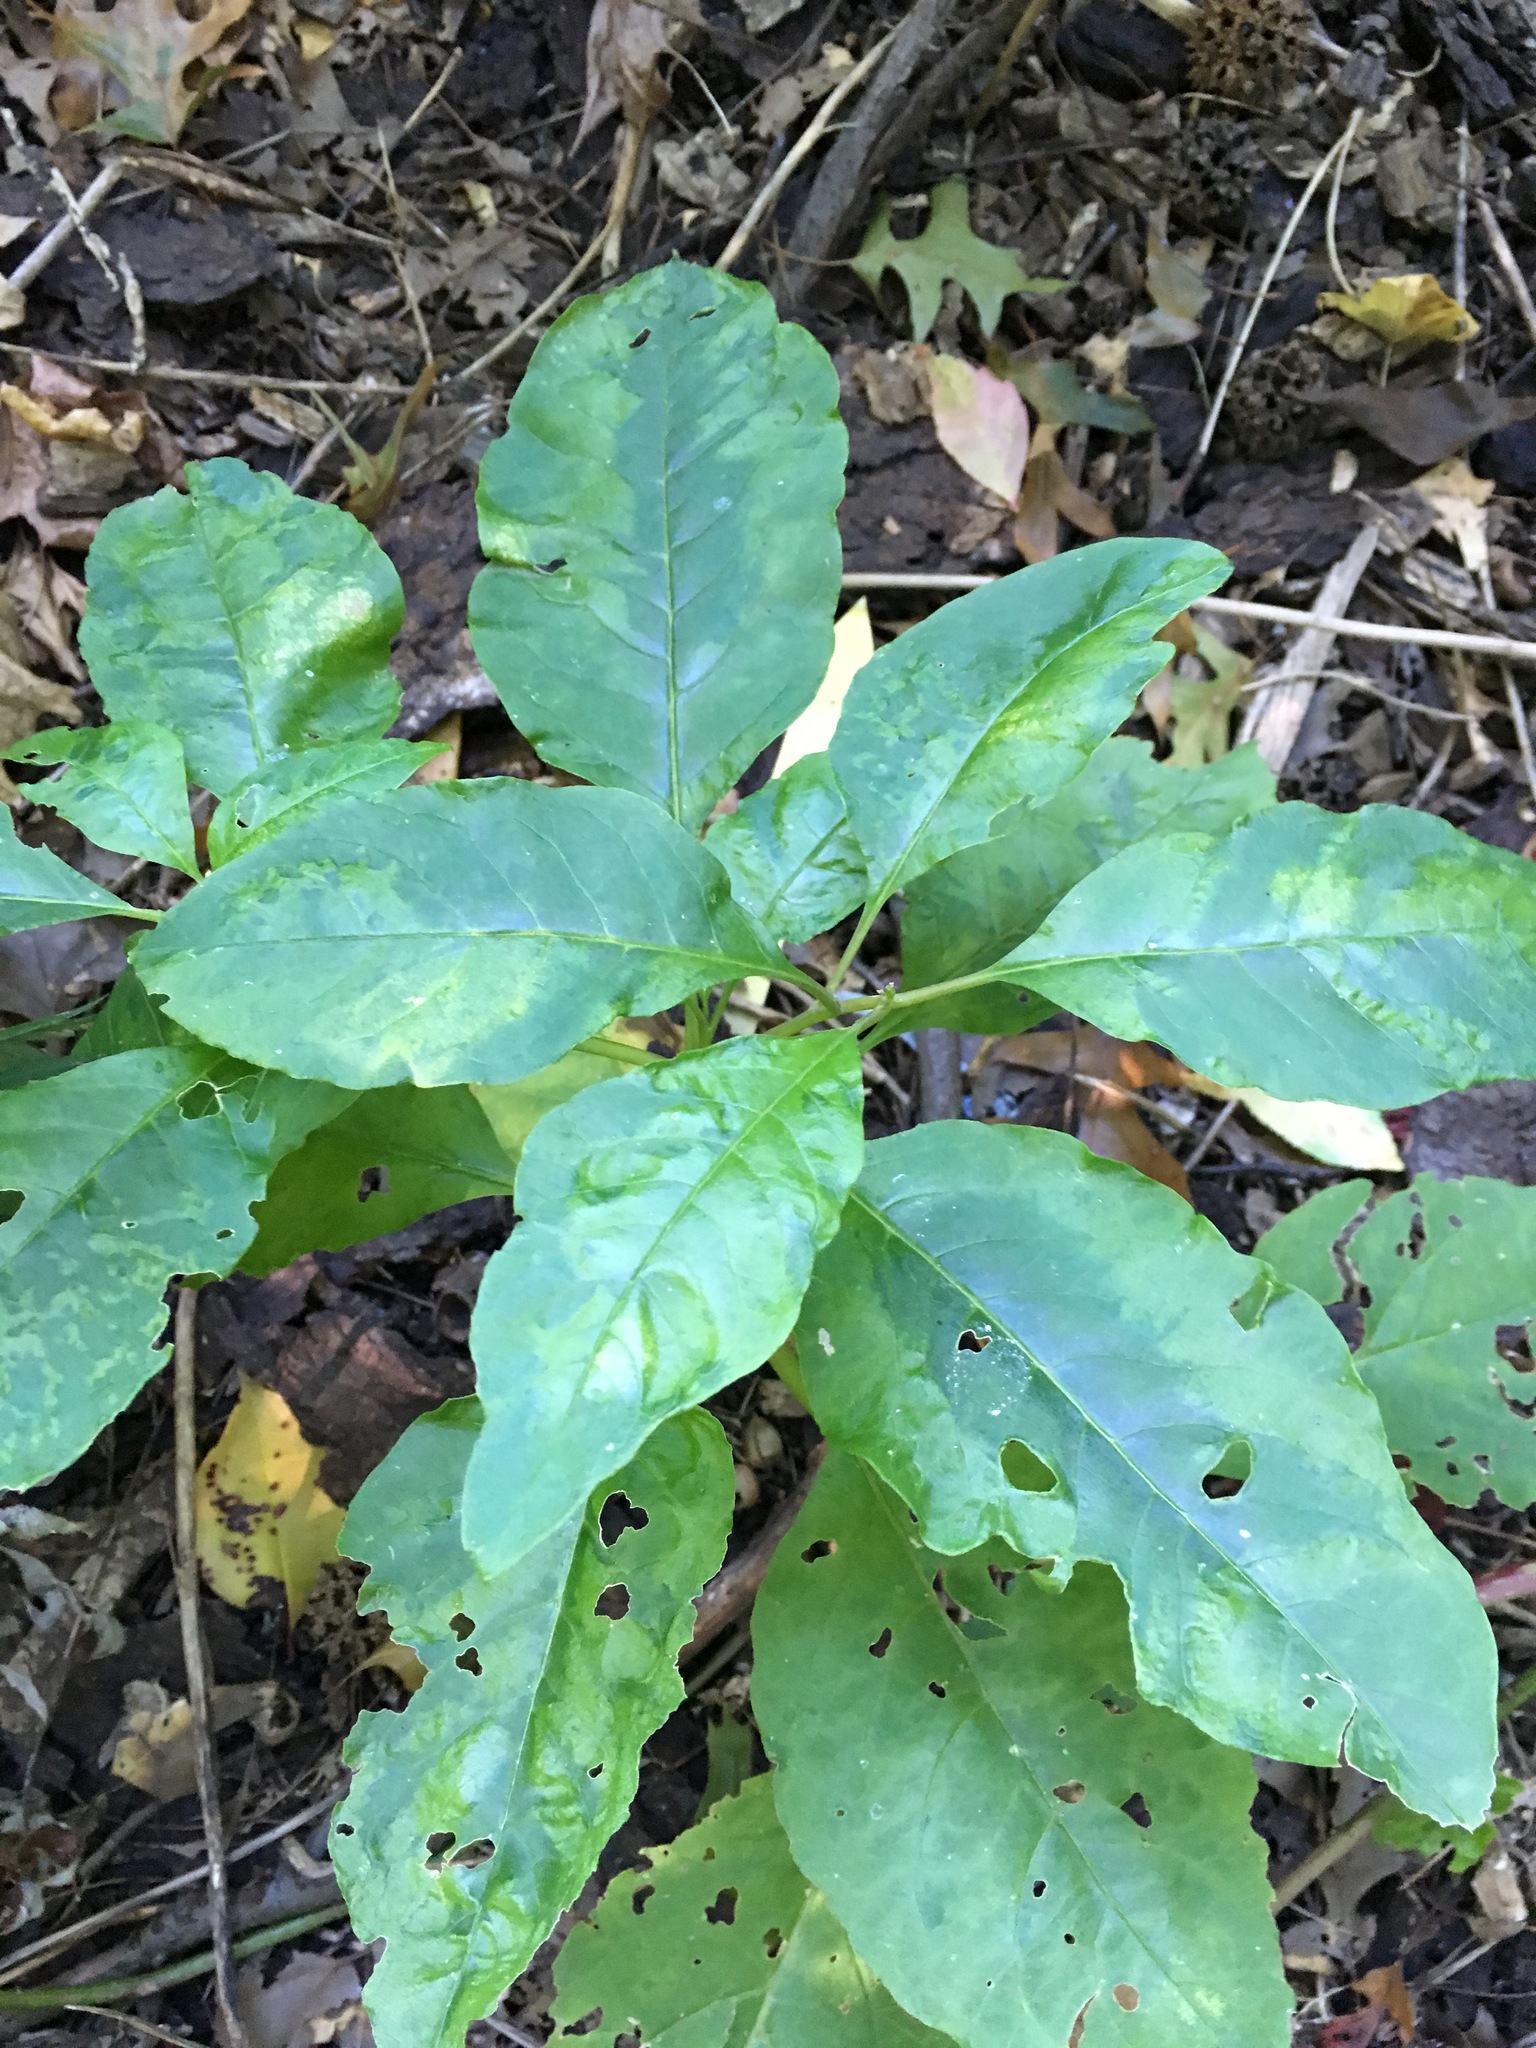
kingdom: Plantae
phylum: Tracheophyta
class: Magnoliopsida
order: Caryophyllales
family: Phytolaccaceae
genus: Phytolacca
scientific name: Phytolacca americana
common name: American pokeweed
